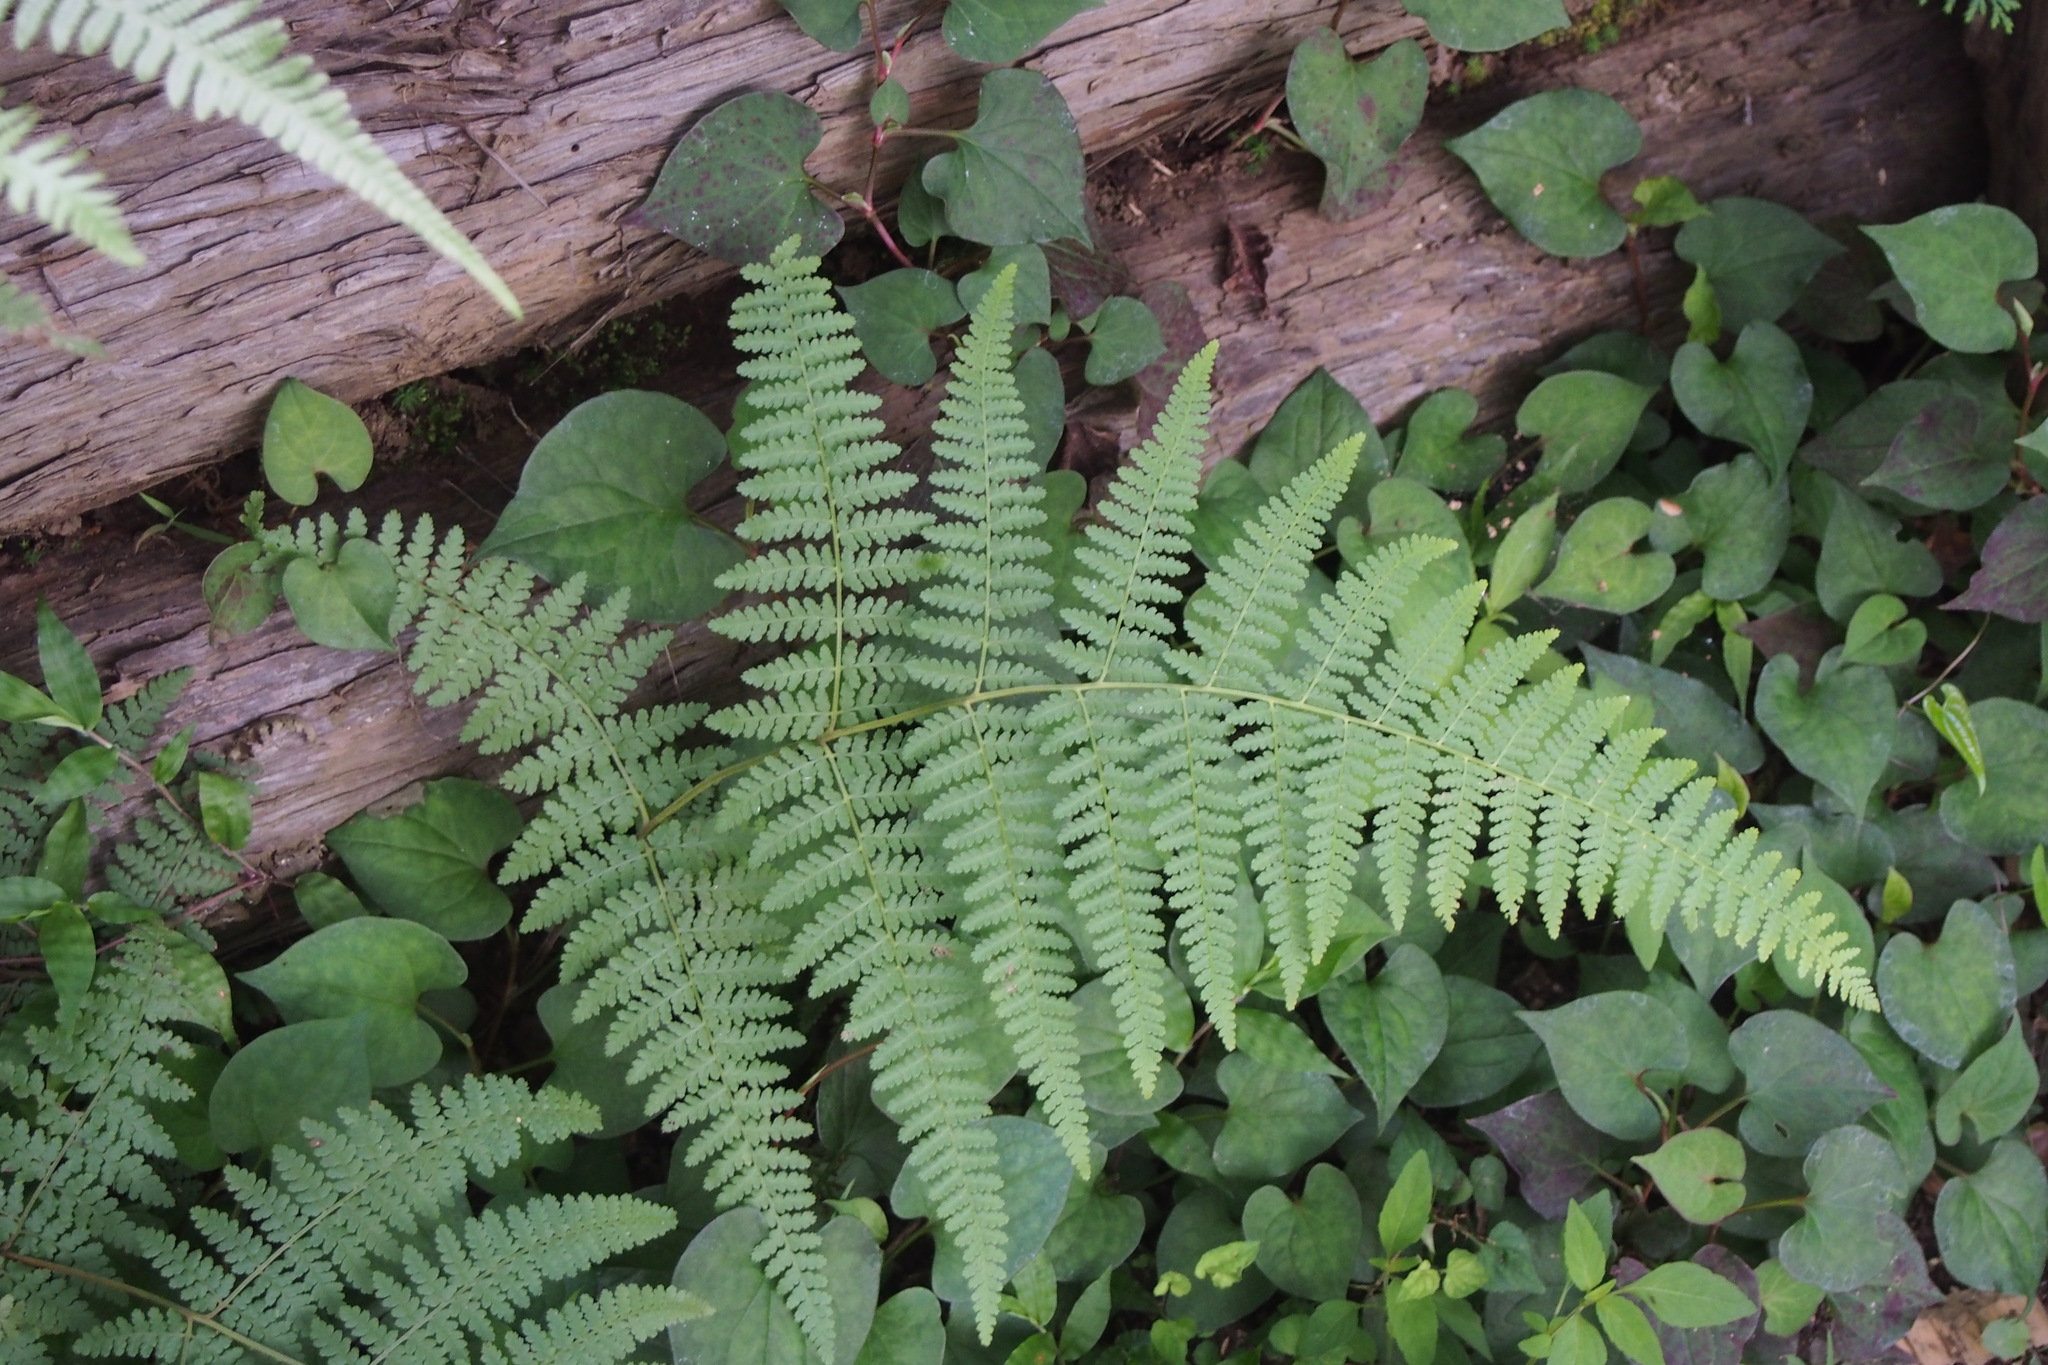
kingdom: Plantae
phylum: Tracheophyta
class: Polypodiopsida
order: Polypodiales
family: Dennstaedtiaceae
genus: Hypolepis
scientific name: Hypolepis punctata
